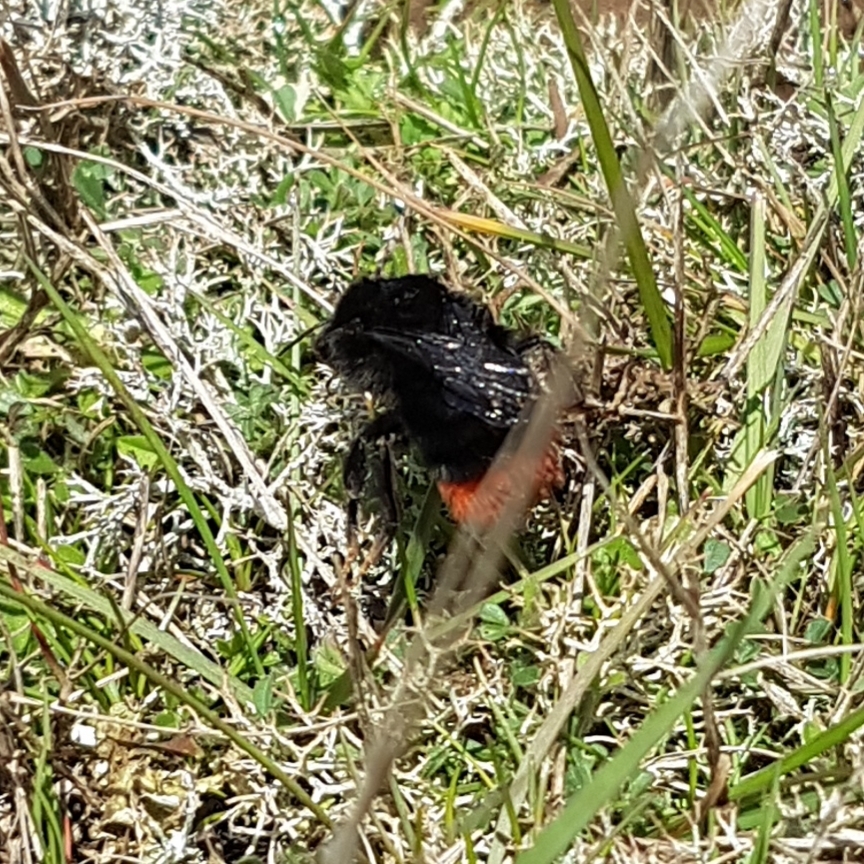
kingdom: Animalia
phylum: Arthropoda
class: Insecta
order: Hymenoptera
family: Apidae
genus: Bombus
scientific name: Bombus lapidarius
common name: Large red-tailed humble-bee
